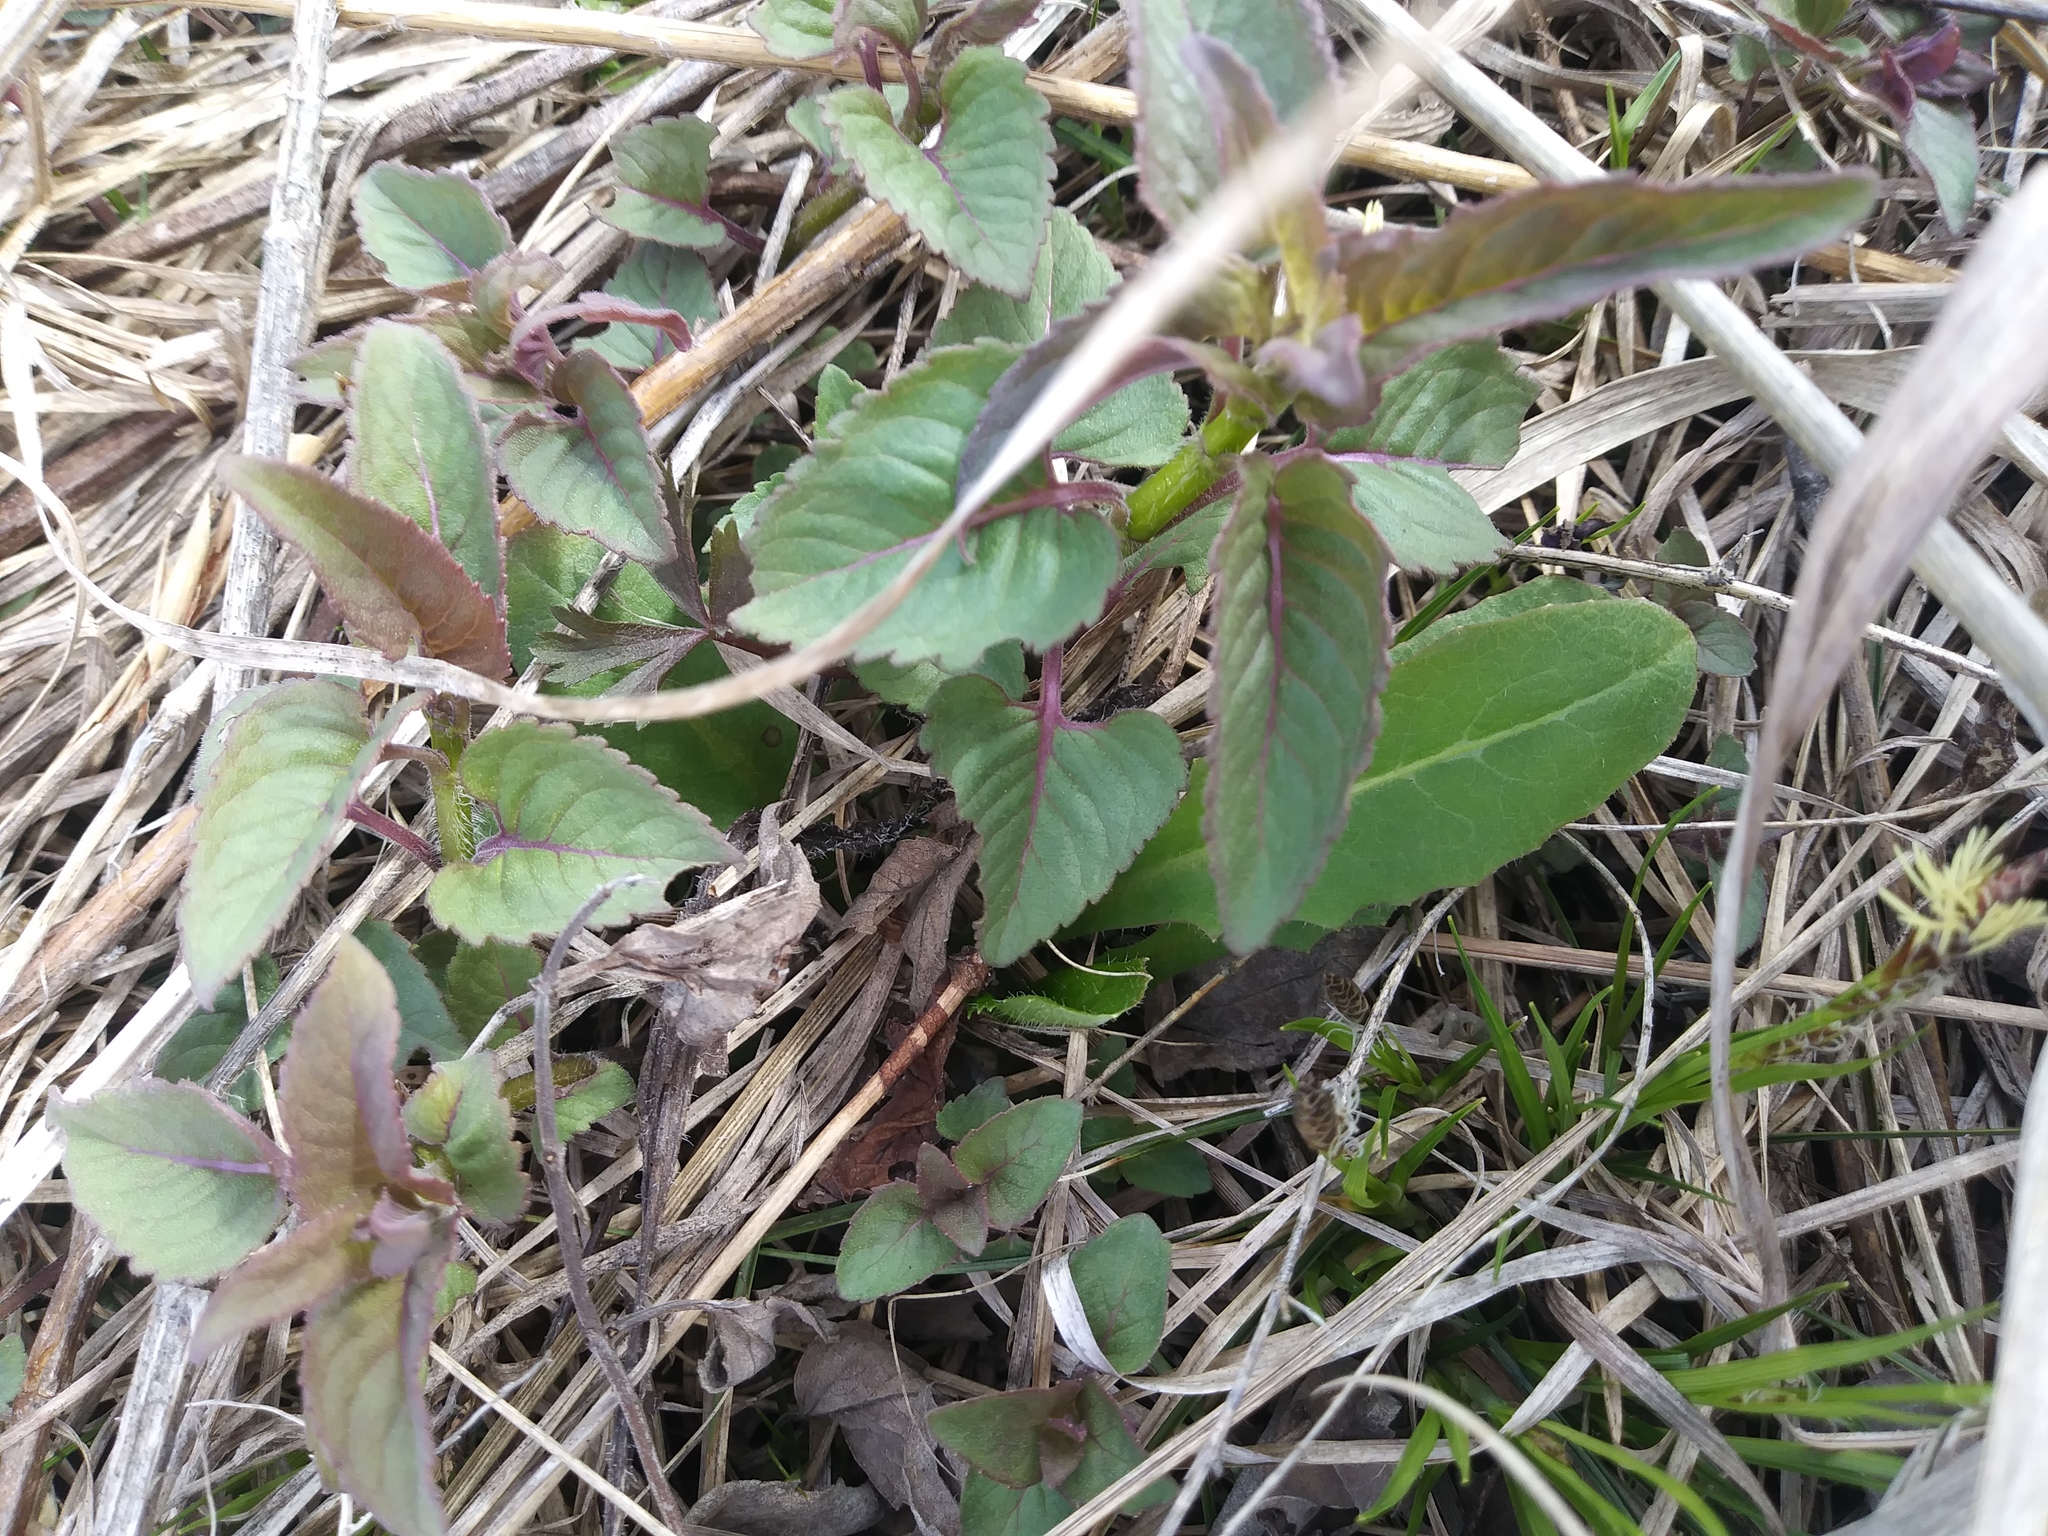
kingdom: Plantae
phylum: Tracheophyta
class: Magnoliopsida
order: Lamiales
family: Lamiaceae
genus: Monarda
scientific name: Monarda fistulosa
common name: Purple beebalm
